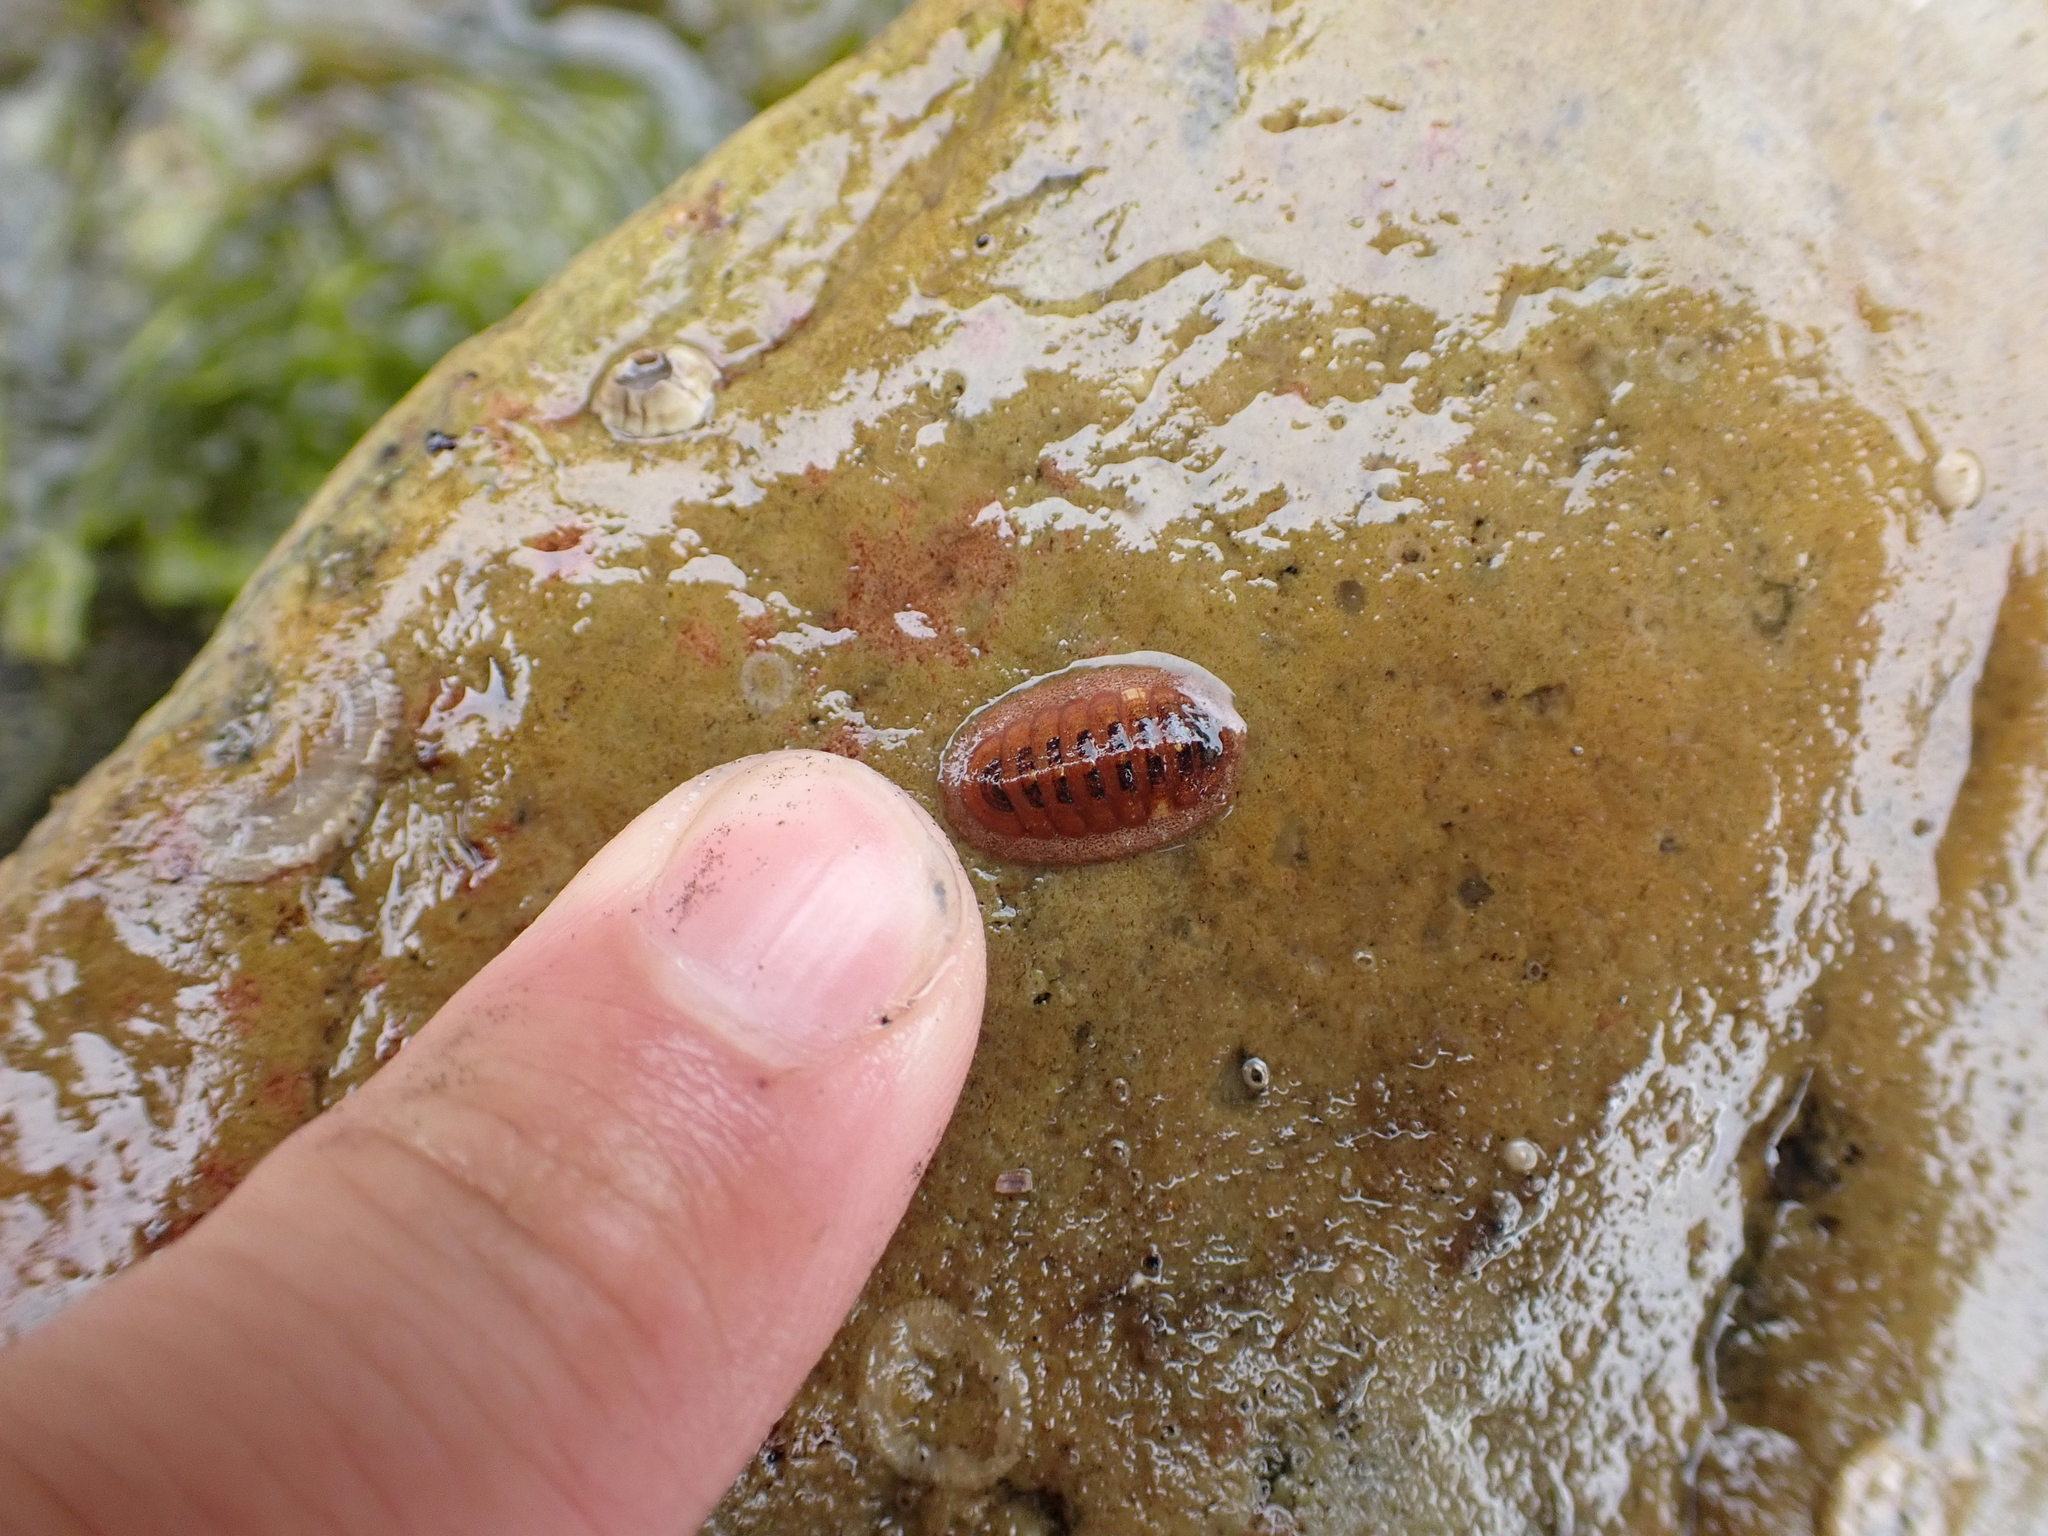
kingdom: Animalia
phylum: Mollusca
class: Polyplacophora
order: Chitonida
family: Ischnochitonidae
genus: Lepidozona
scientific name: Lepidozona interstincta
